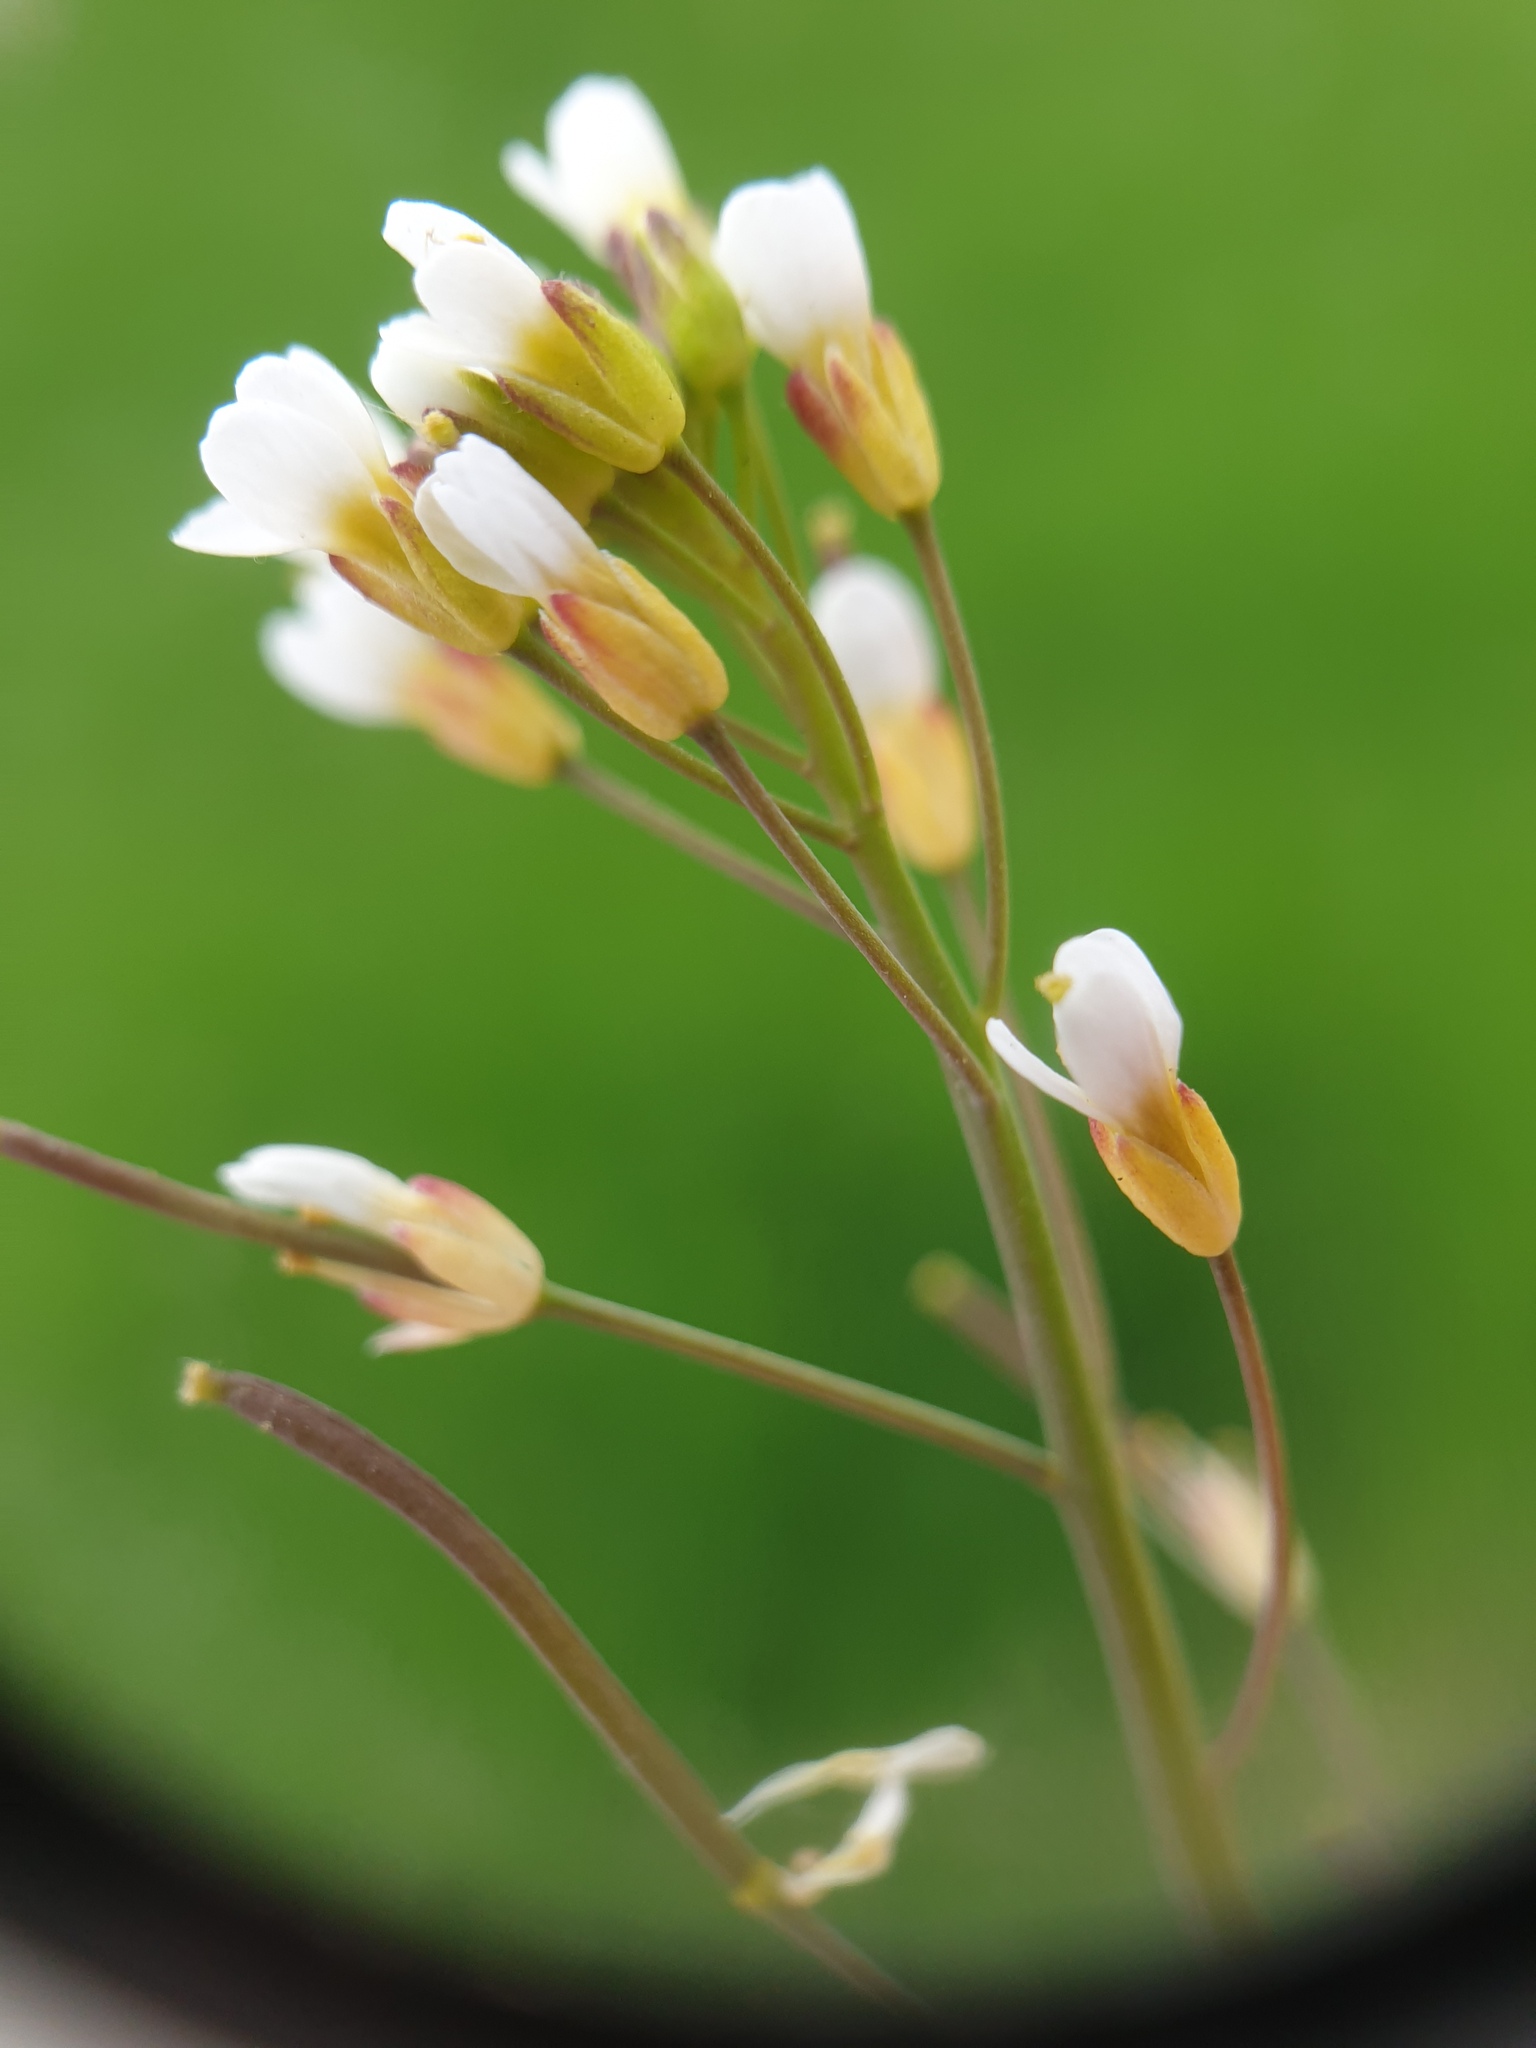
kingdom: Plantae
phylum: Tracheophyta
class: Magnoliopsida
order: Brassicales
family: Brassicaceae
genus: Arabidopsis
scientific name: Arabidopsis thaliana
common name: Thale cress
